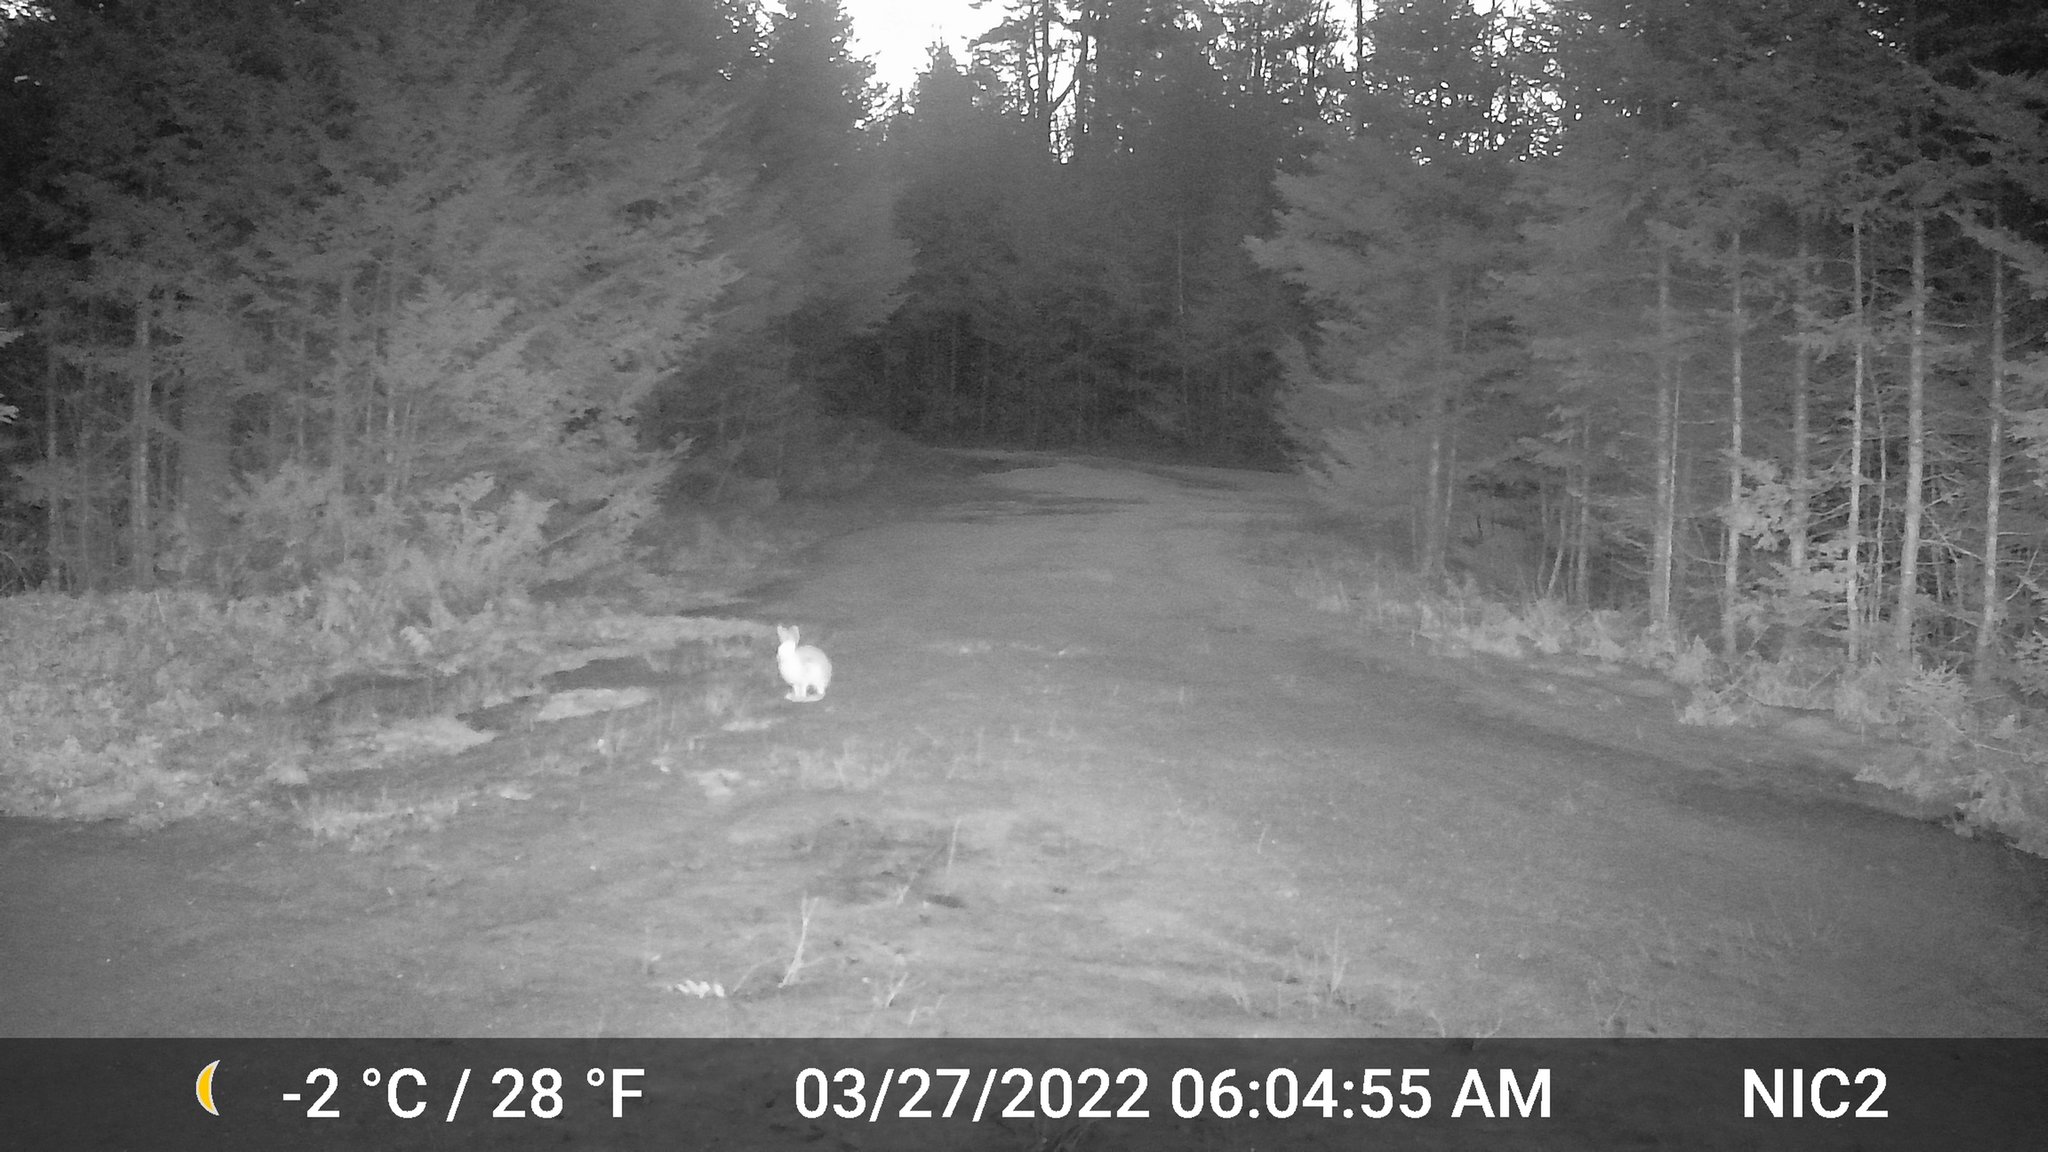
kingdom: Animalia
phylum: Chordata
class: Mammalia
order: Lagomorpha
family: Leporidae
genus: Lepus
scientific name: Lepus americanus
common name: Snowshoe hare
